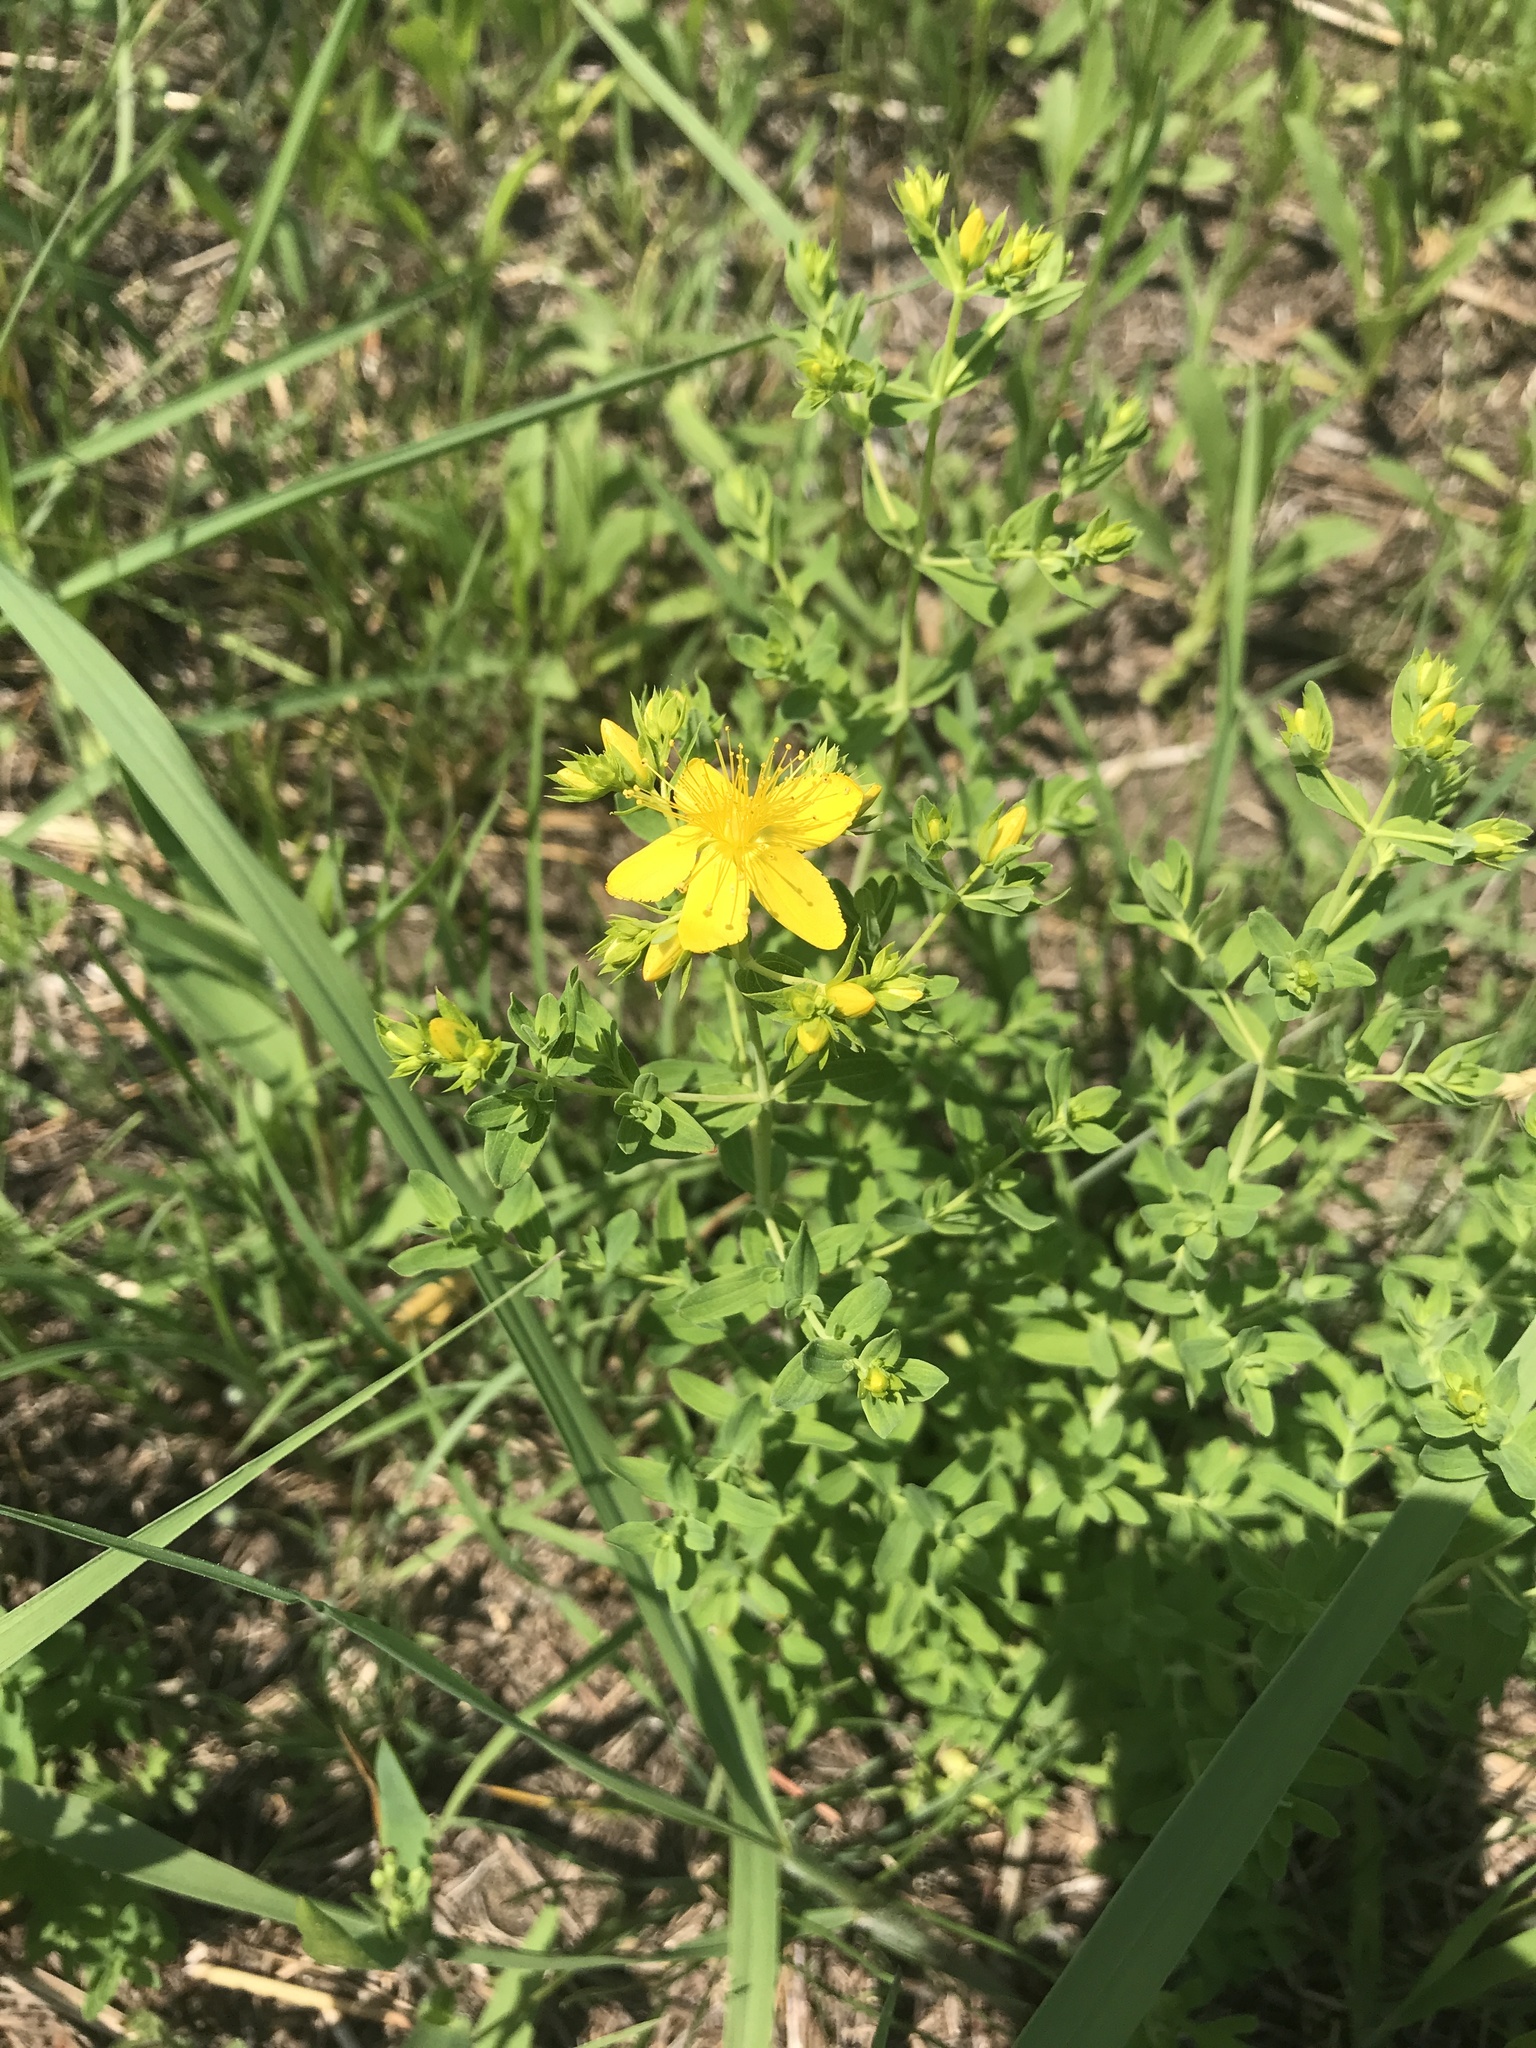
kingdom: Plantae
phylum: Tracheophyta
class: Magnoliopsida
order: Malpighiales
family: Hypericaceae
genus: Hypericum
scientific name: Hypericum perforatum
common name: Common st. johnswort
